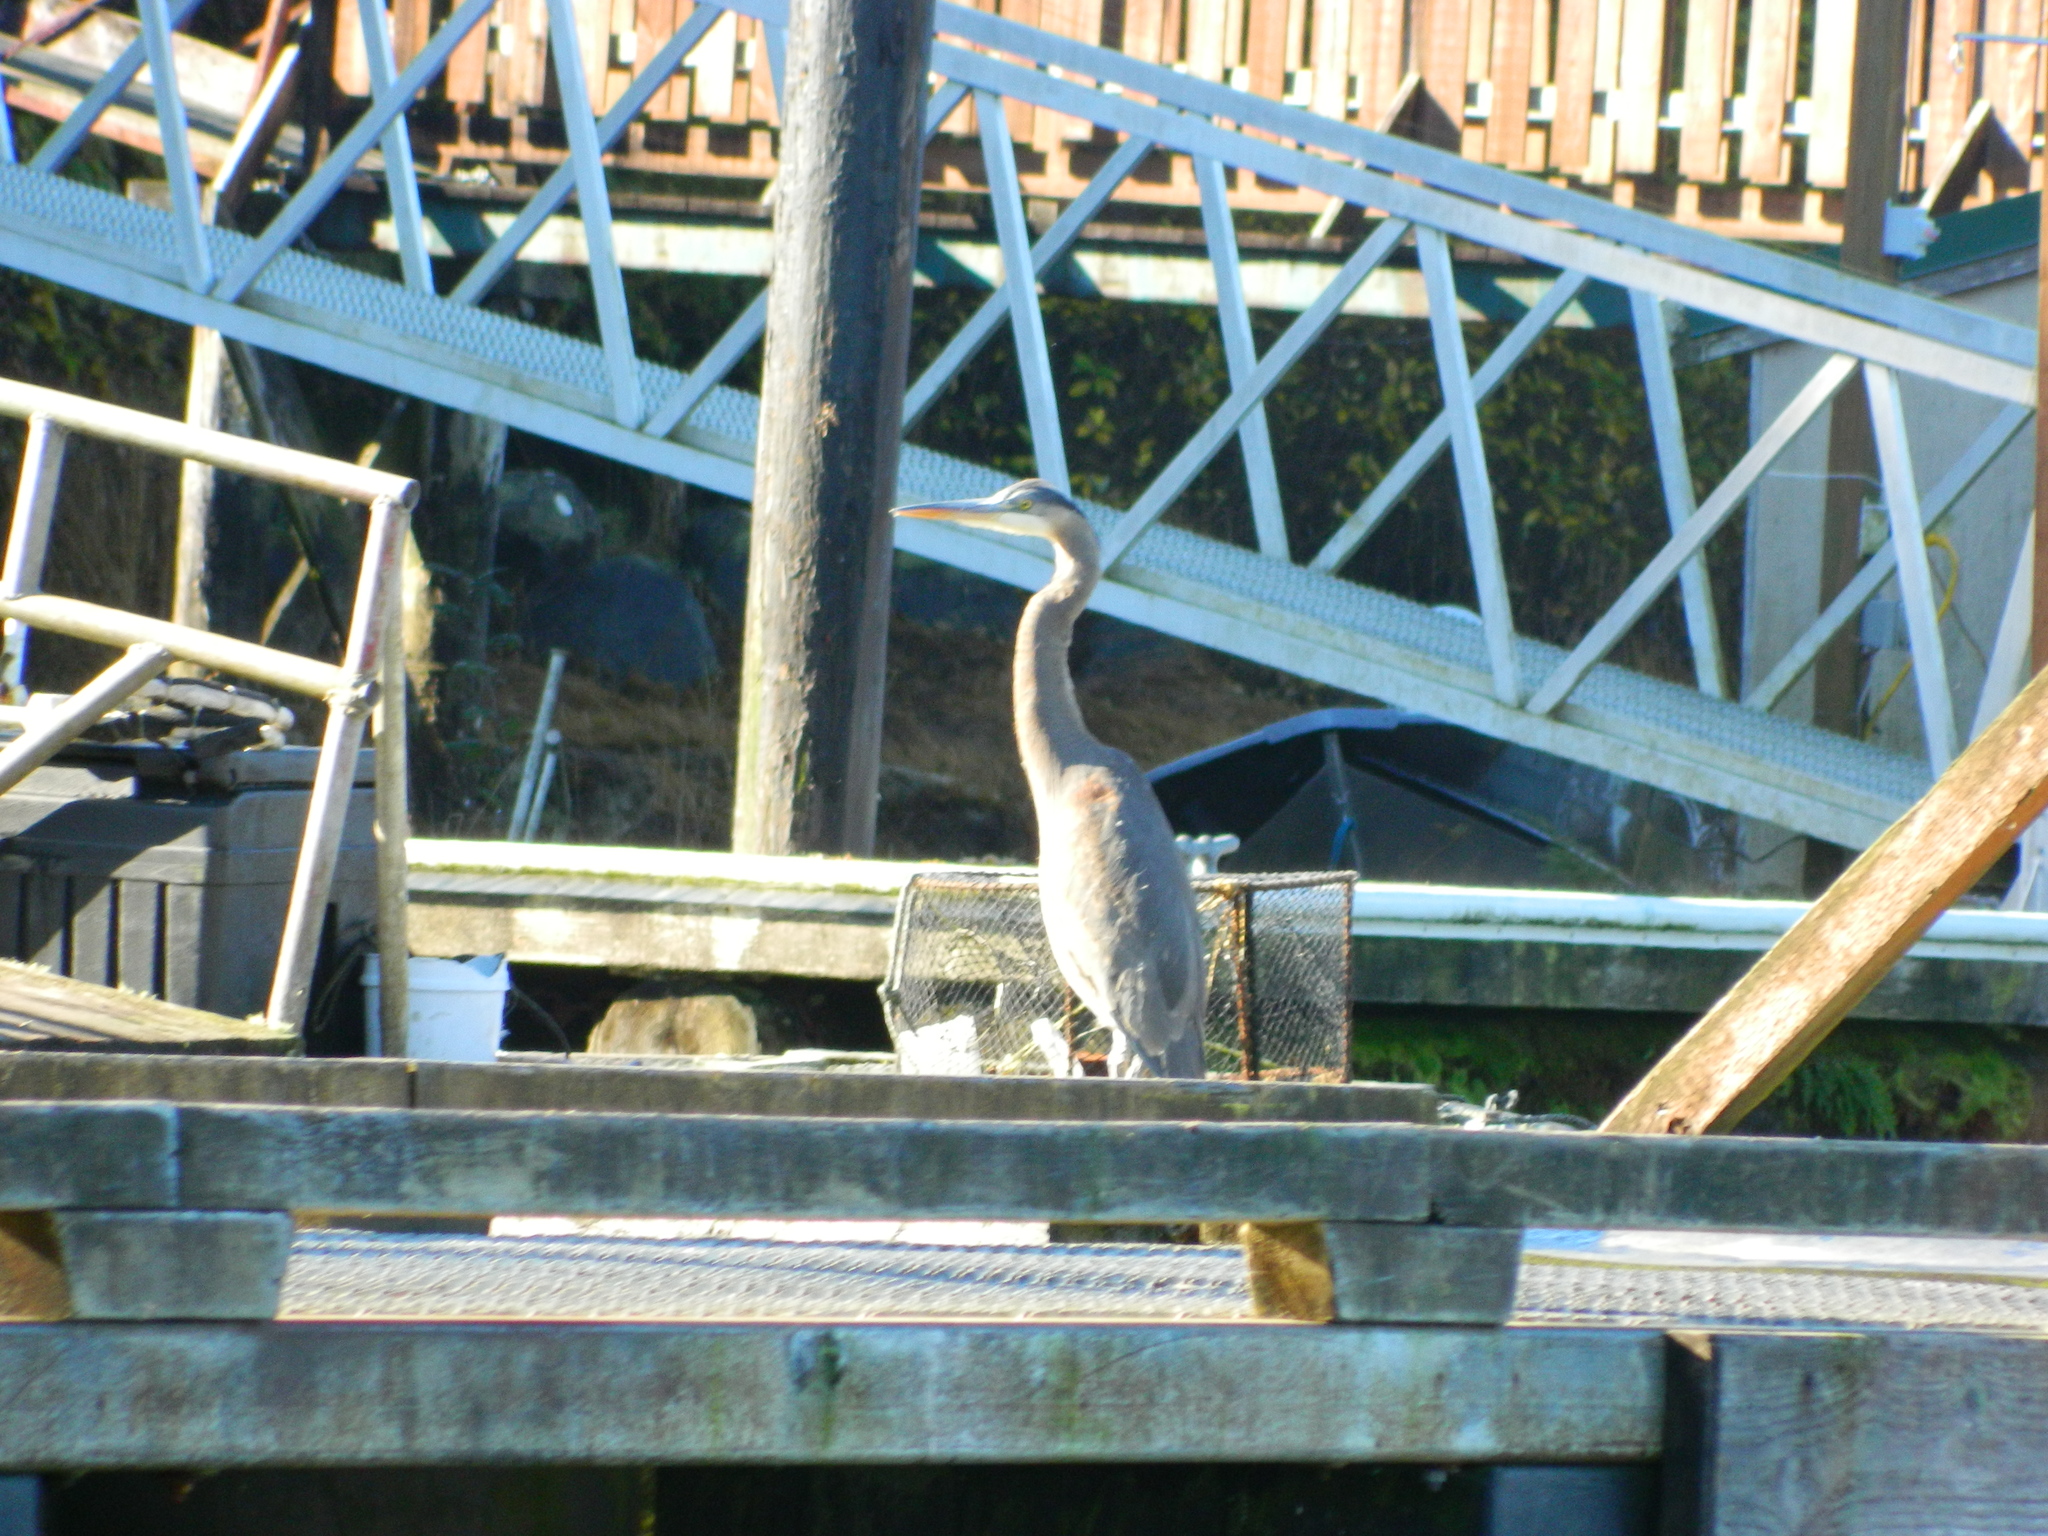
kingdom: Animalia
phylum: Chordata
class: Aves
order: Pelecaniformes
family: Ardeidae
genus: Ardea
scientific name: Ardea herodias
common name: Great blue heron
